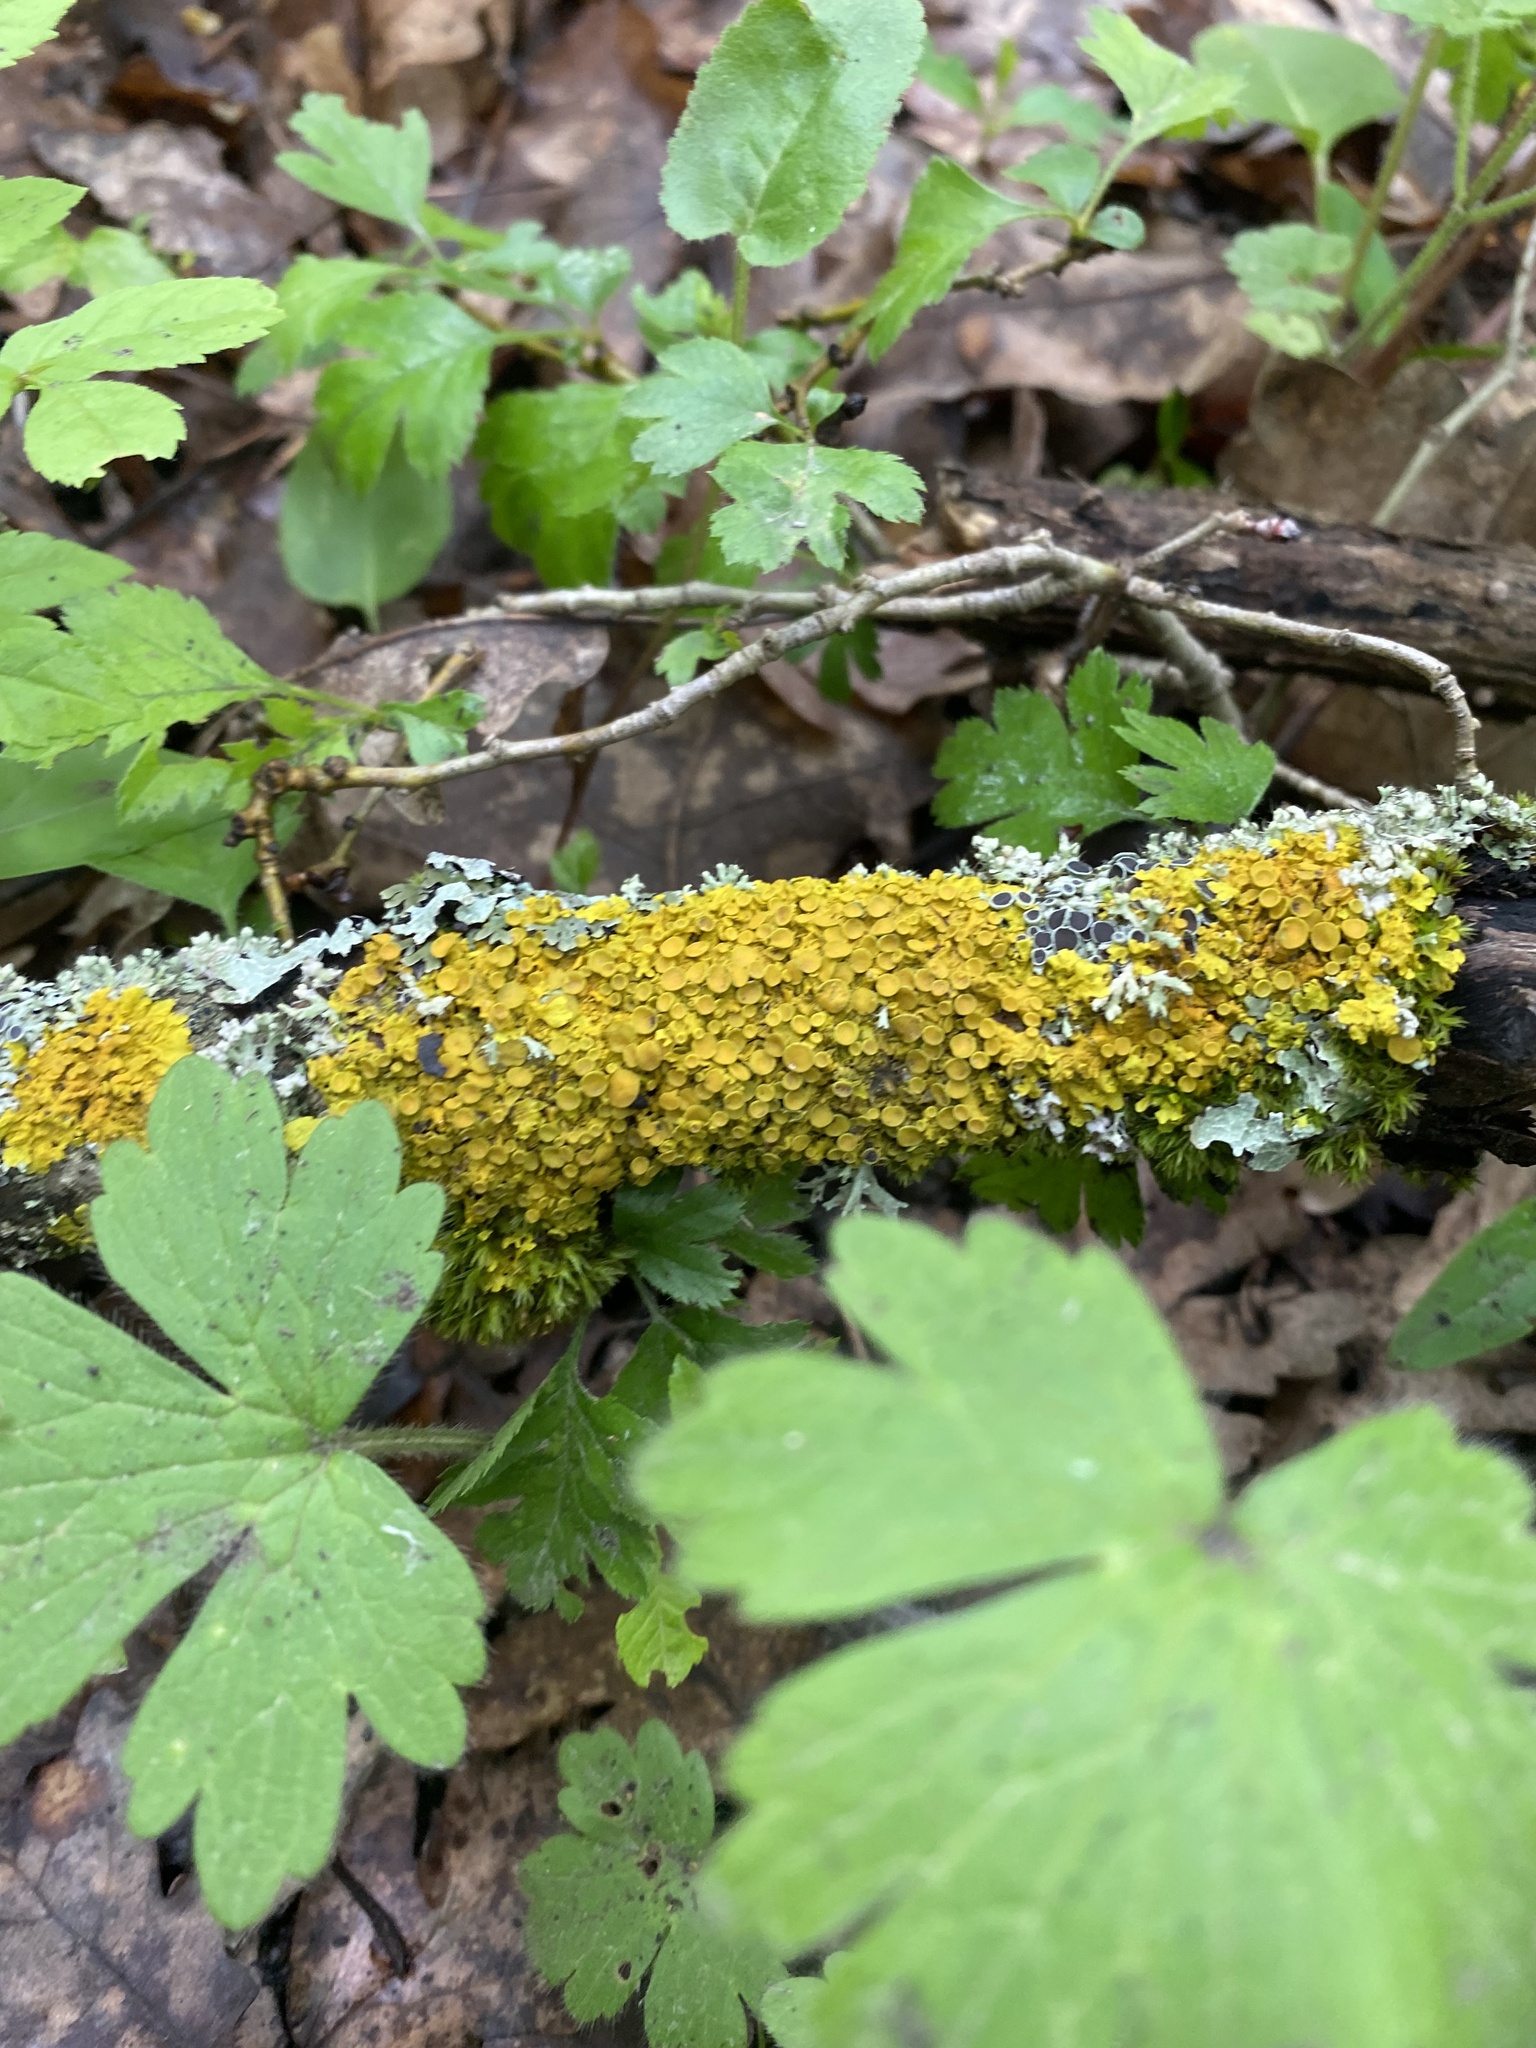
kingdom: Fungi
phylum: Ascomycota
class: Lecanoromycetes
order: Teloschistales
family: Teloschistaceae
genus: Xanthoria
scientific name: Xanthoria parietina
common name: Common orange lichen
